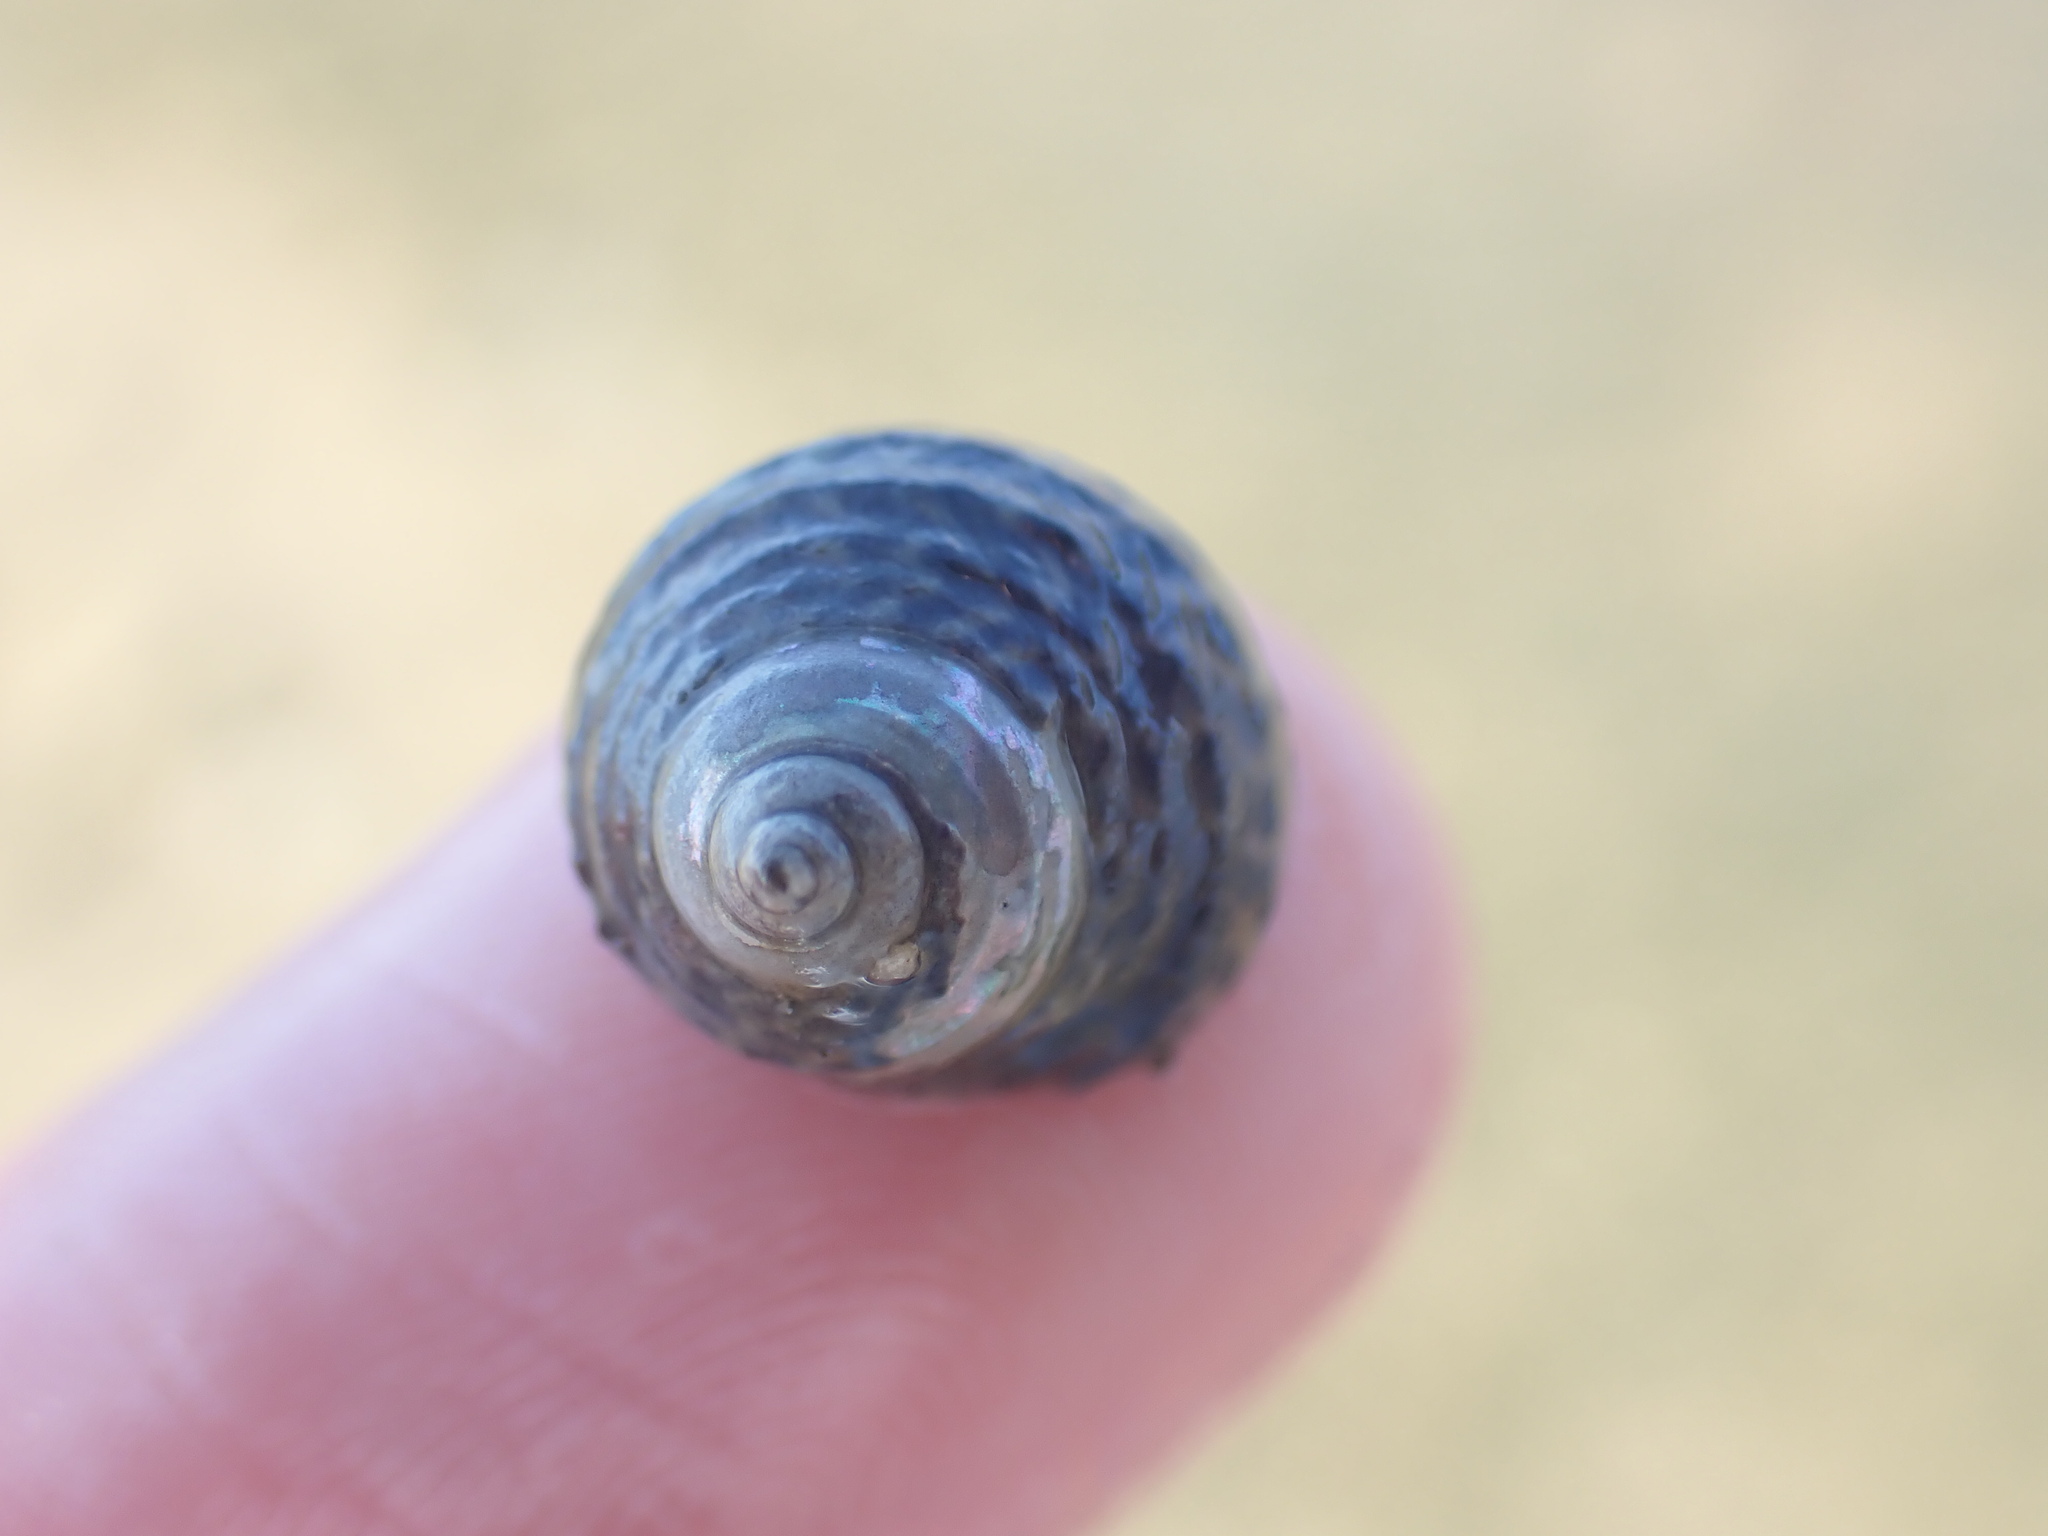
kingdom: Animalia
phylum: Mollusca
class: Gastropoda
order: Trochida
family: Trochidae
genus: Diloma
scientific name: Diloma subrostratum
